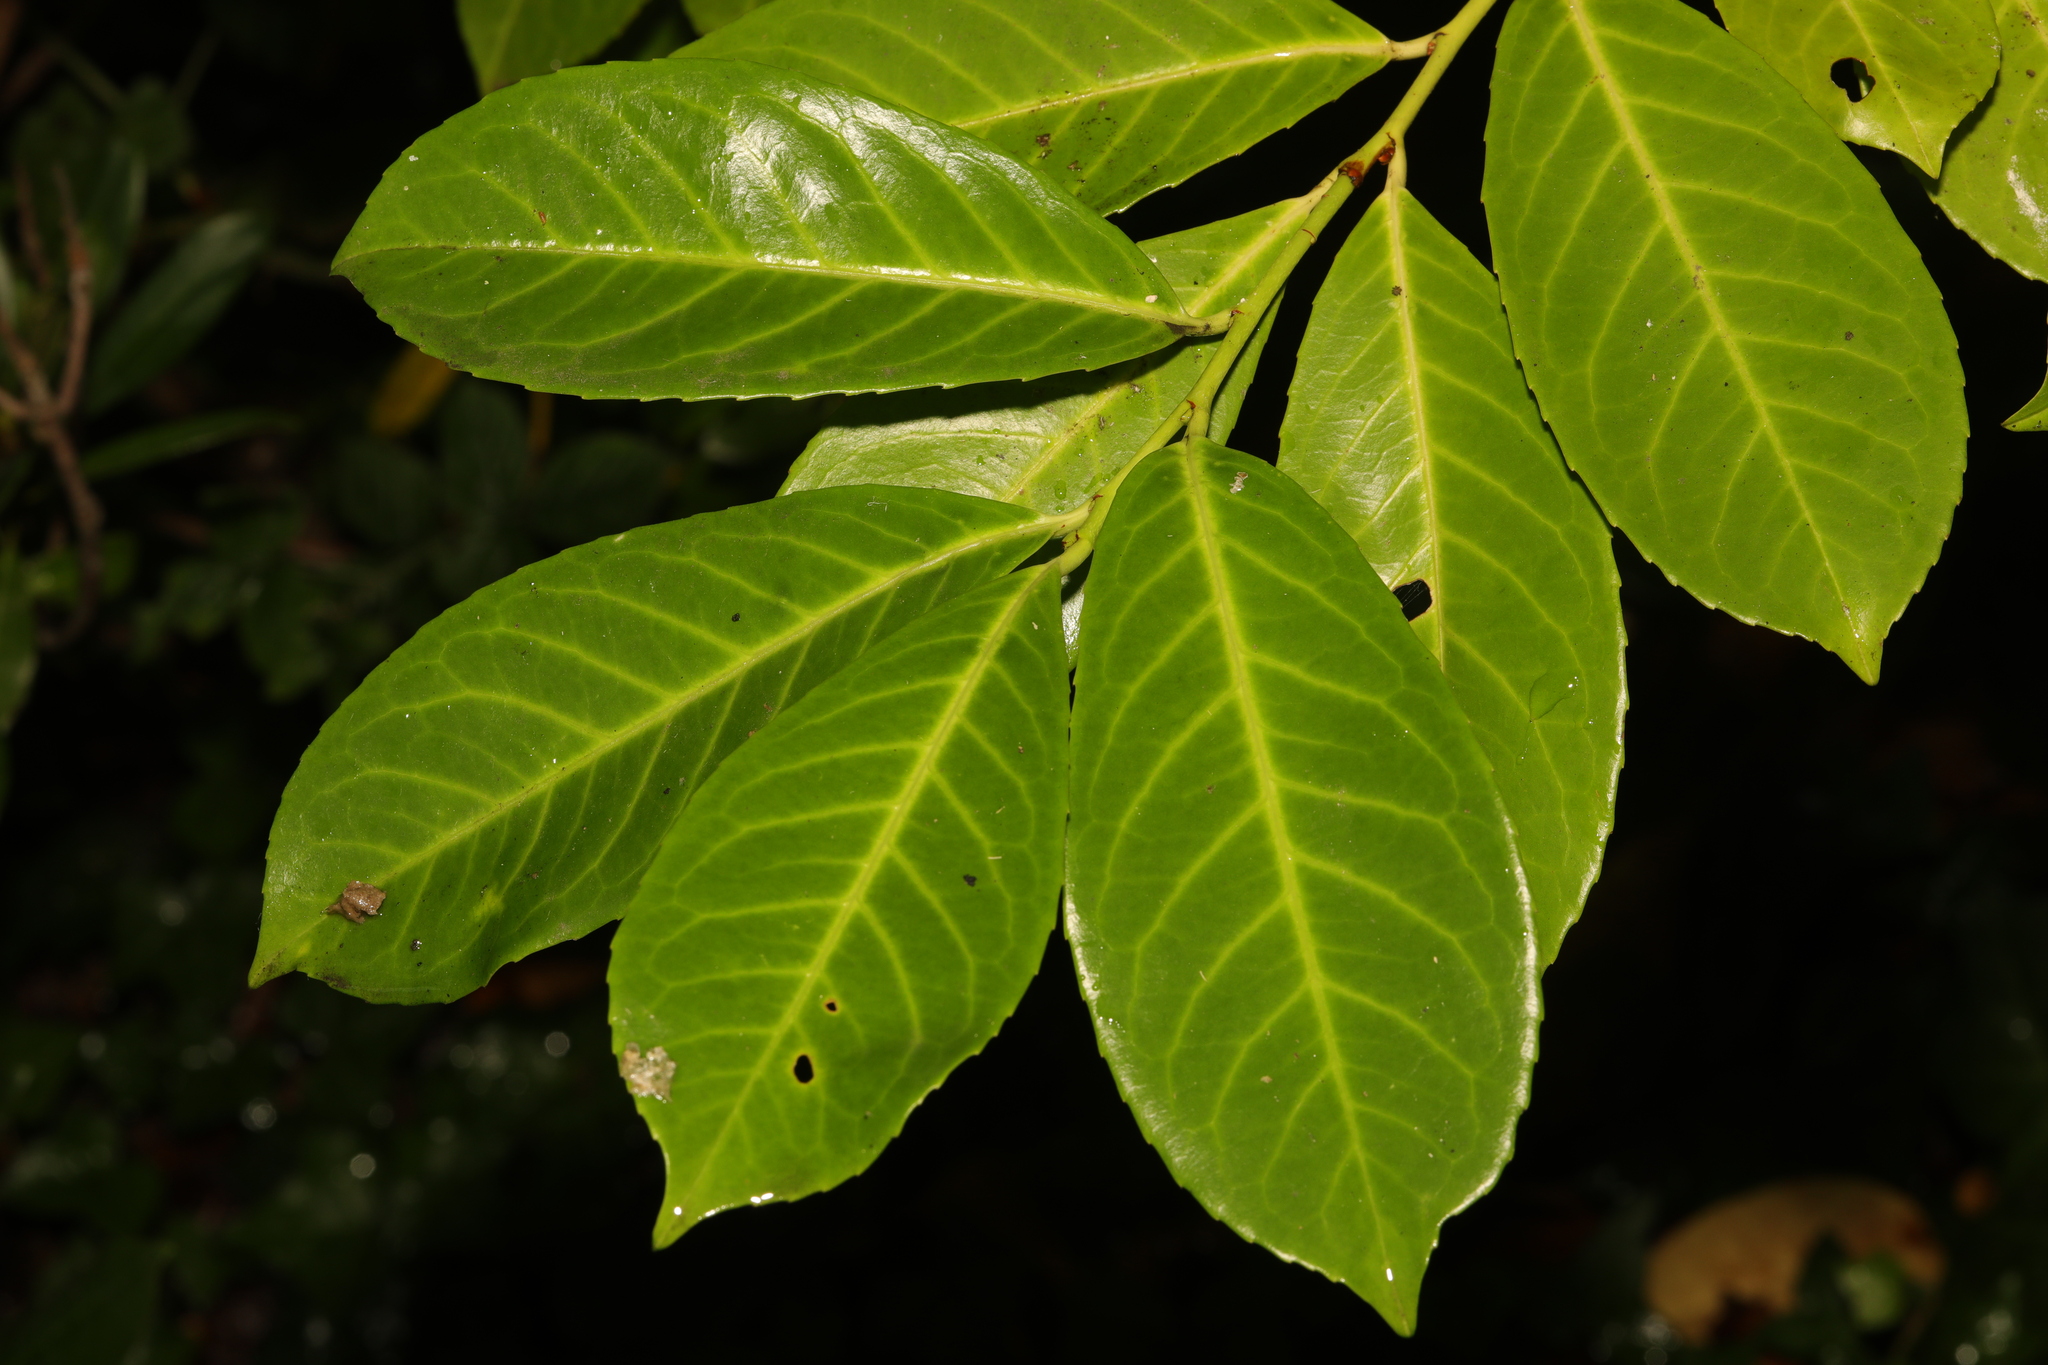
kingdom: Plantae
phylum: Tracheophyta
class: Magnoliopsida
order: Rosales
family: Rosaceae
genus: Prunus
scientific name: Prunus laurocerasus
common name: Cherry laurel
